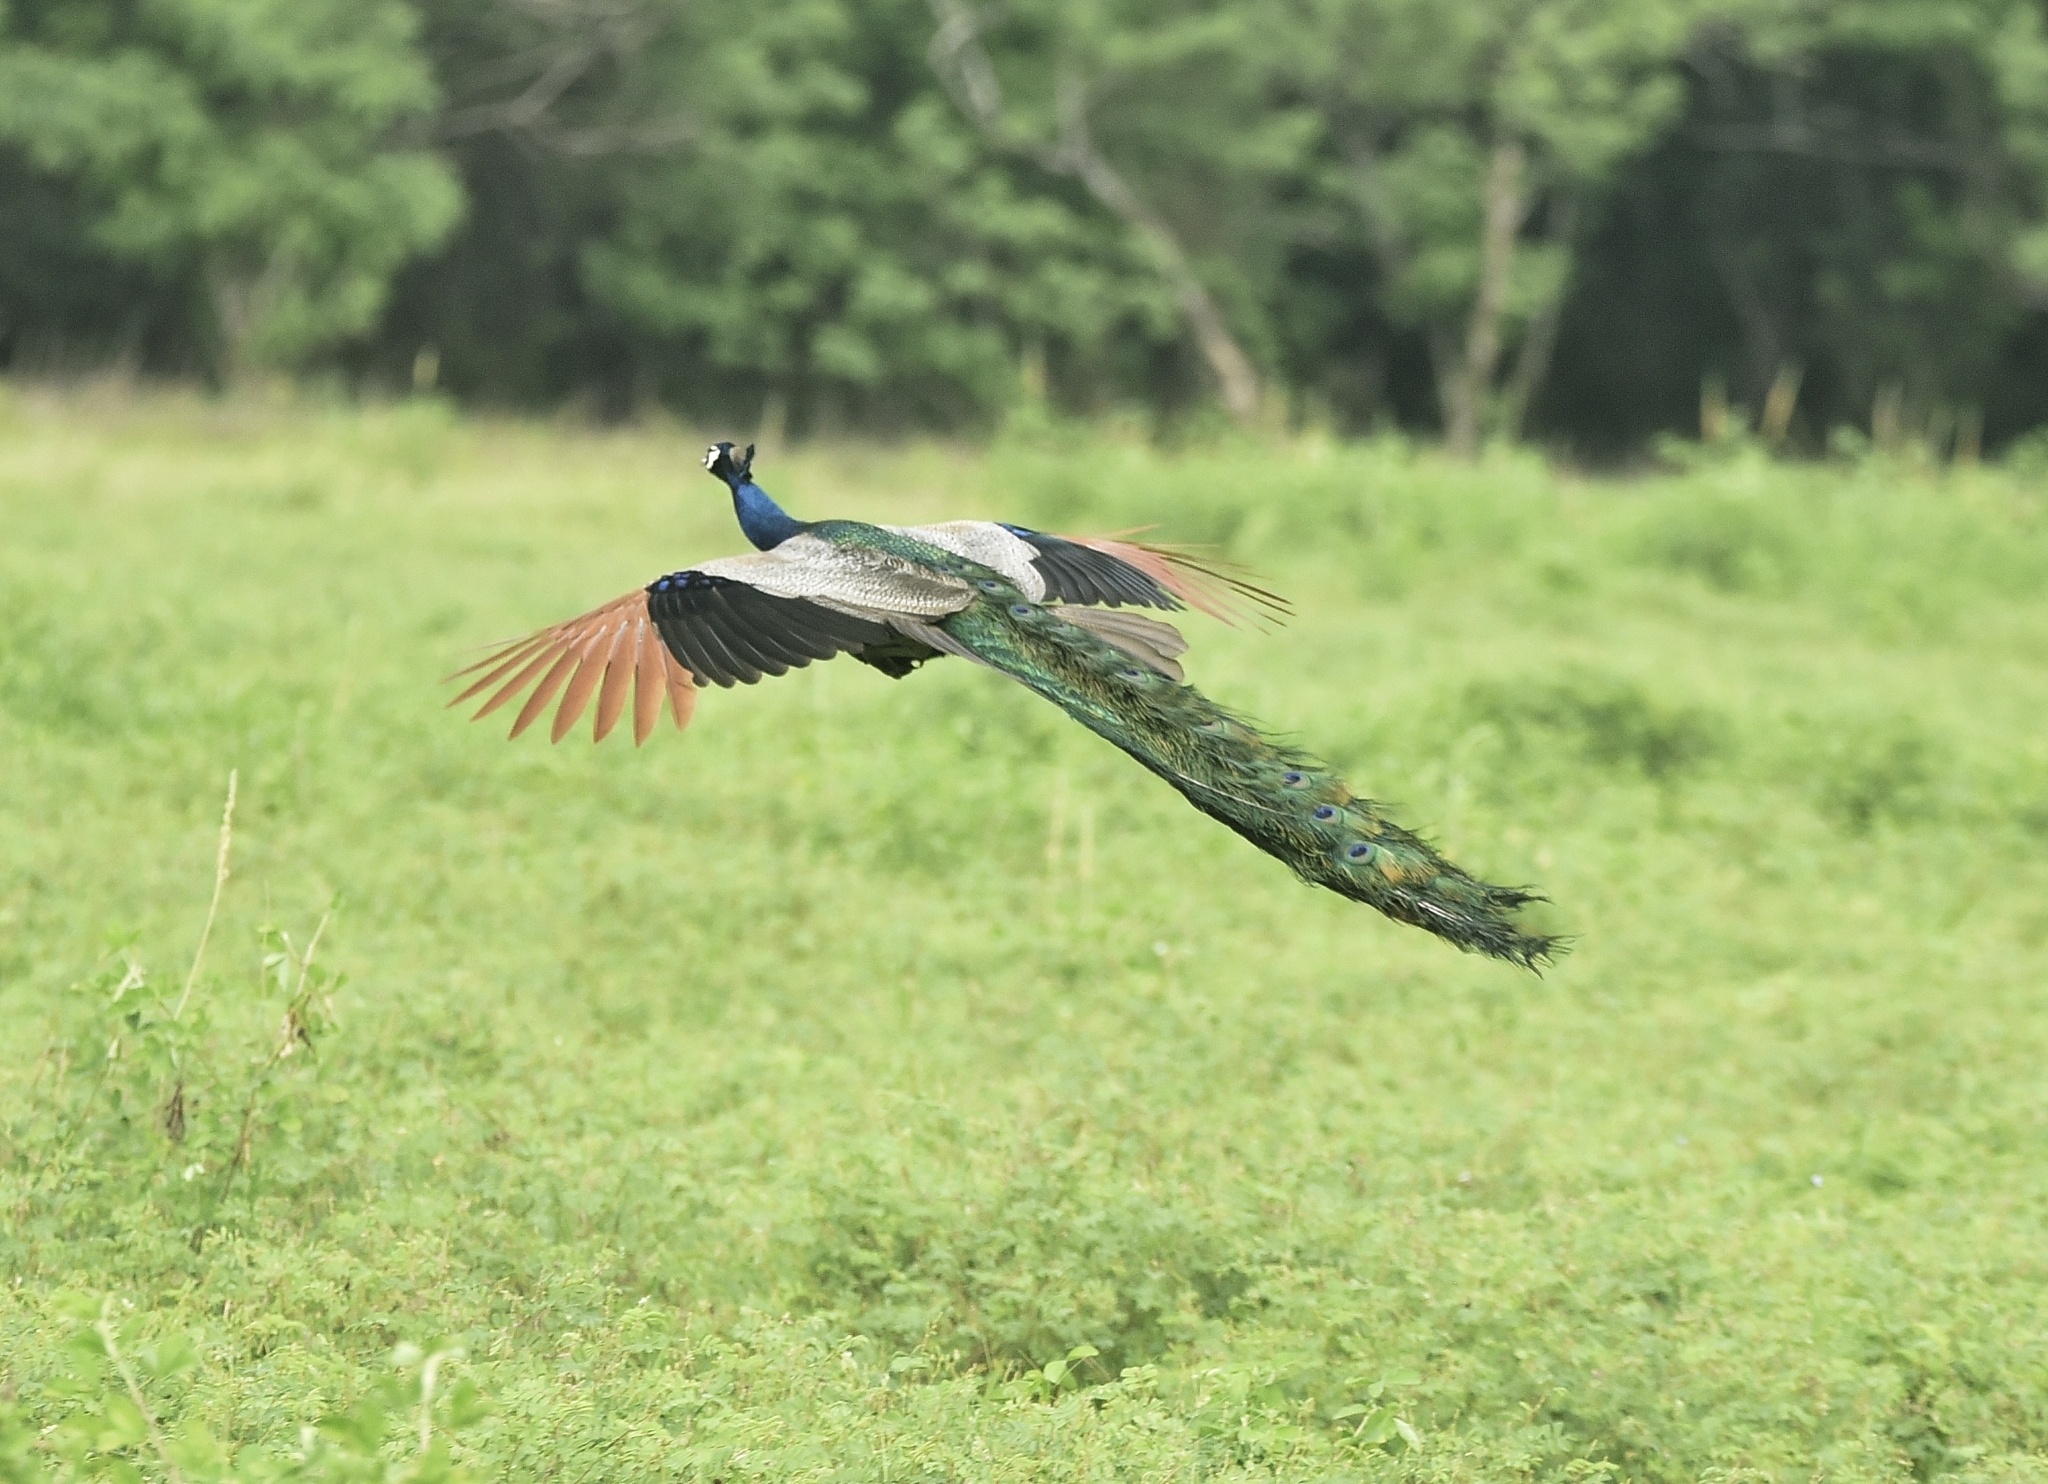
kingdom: Animalia
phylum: Chordata
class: Aves
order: Galliformes
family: Phasianidae
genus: Pavo
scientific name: Pavo cristatus
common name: Indian peafowl
